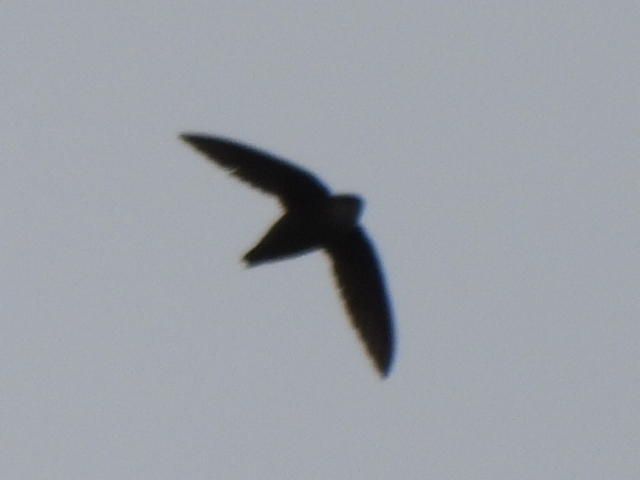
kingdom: Animalia
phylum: Chordata
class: Aves
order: Apodiformes
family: Apodidae
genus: Chaetura
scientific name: Chaetura pelagica
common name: Chimney swift
